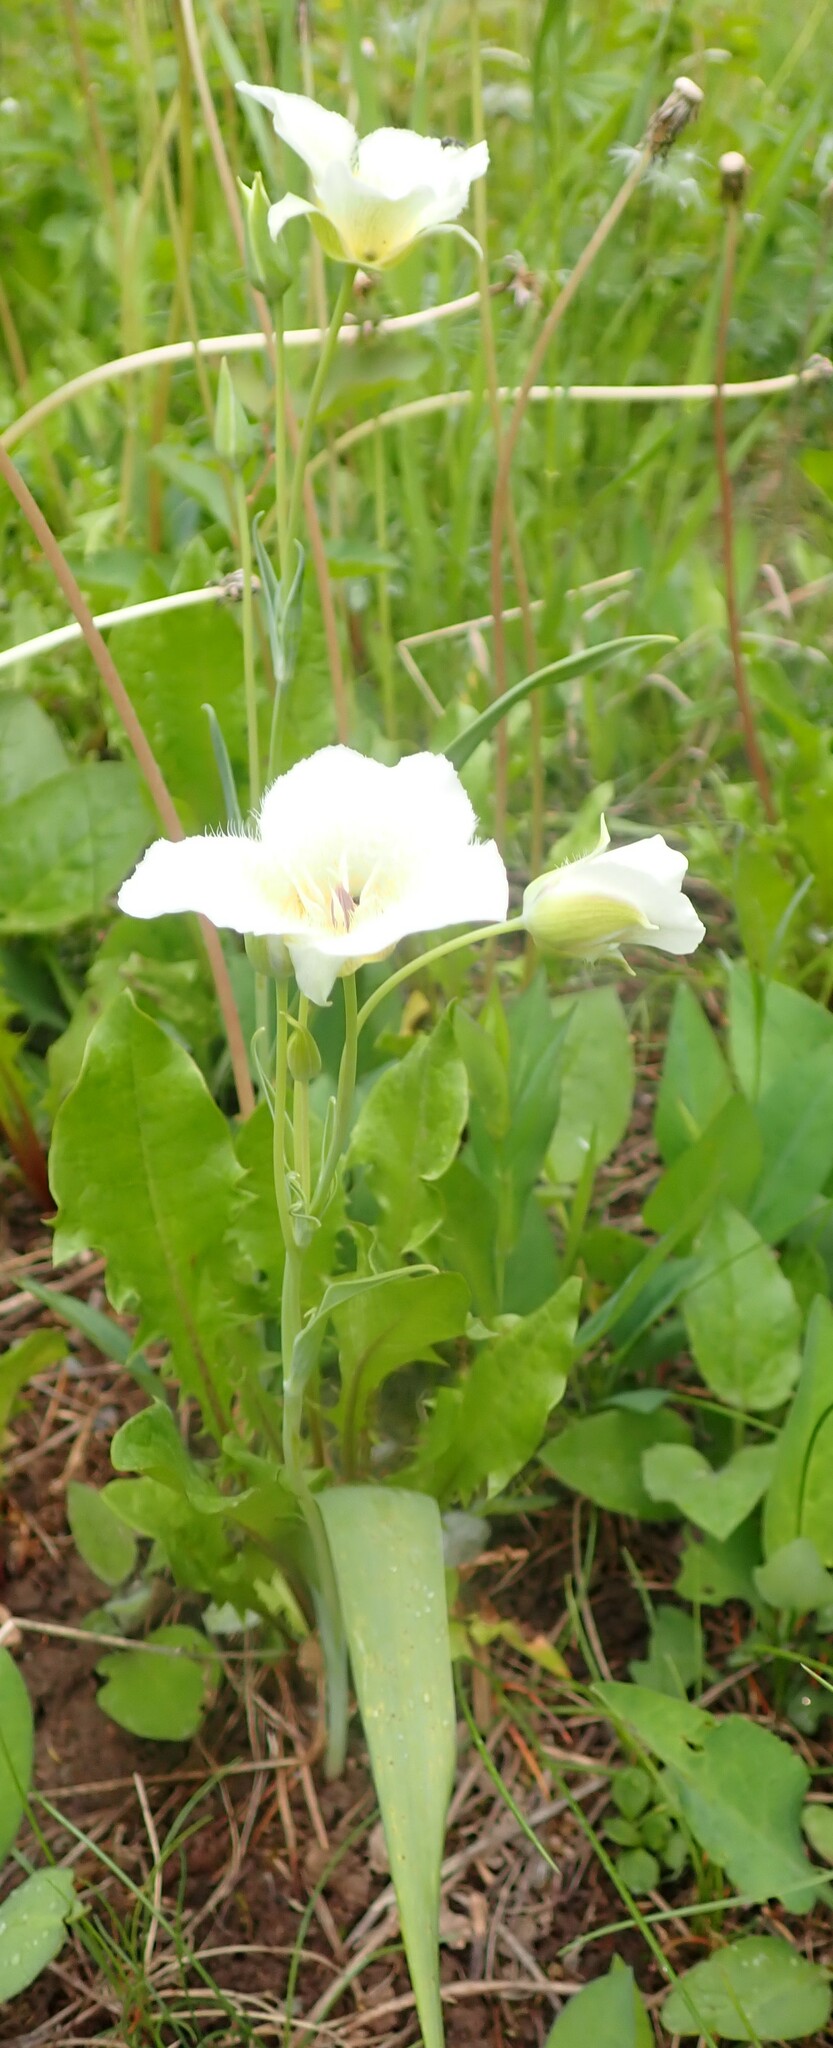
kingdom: Plantae
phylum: Tracheophyta
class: Liliopsida
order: Liliales
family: Liliaceae
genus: Calochortus
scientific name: Calochortus apiculatus
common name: Baker's mariposa lily
